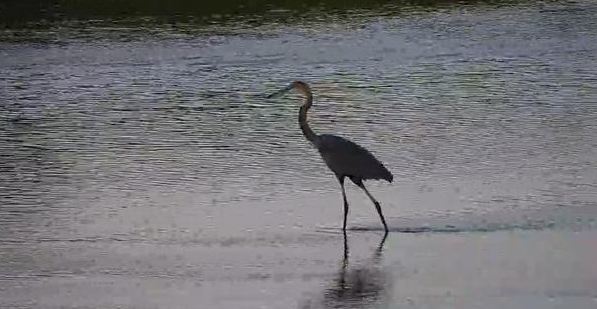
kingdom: Animalia
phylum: Chordata
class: Aves
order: Pelecaniformes
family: Ardeidae
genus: Ardea
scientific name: Ardea goliath
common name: Goliath heron
